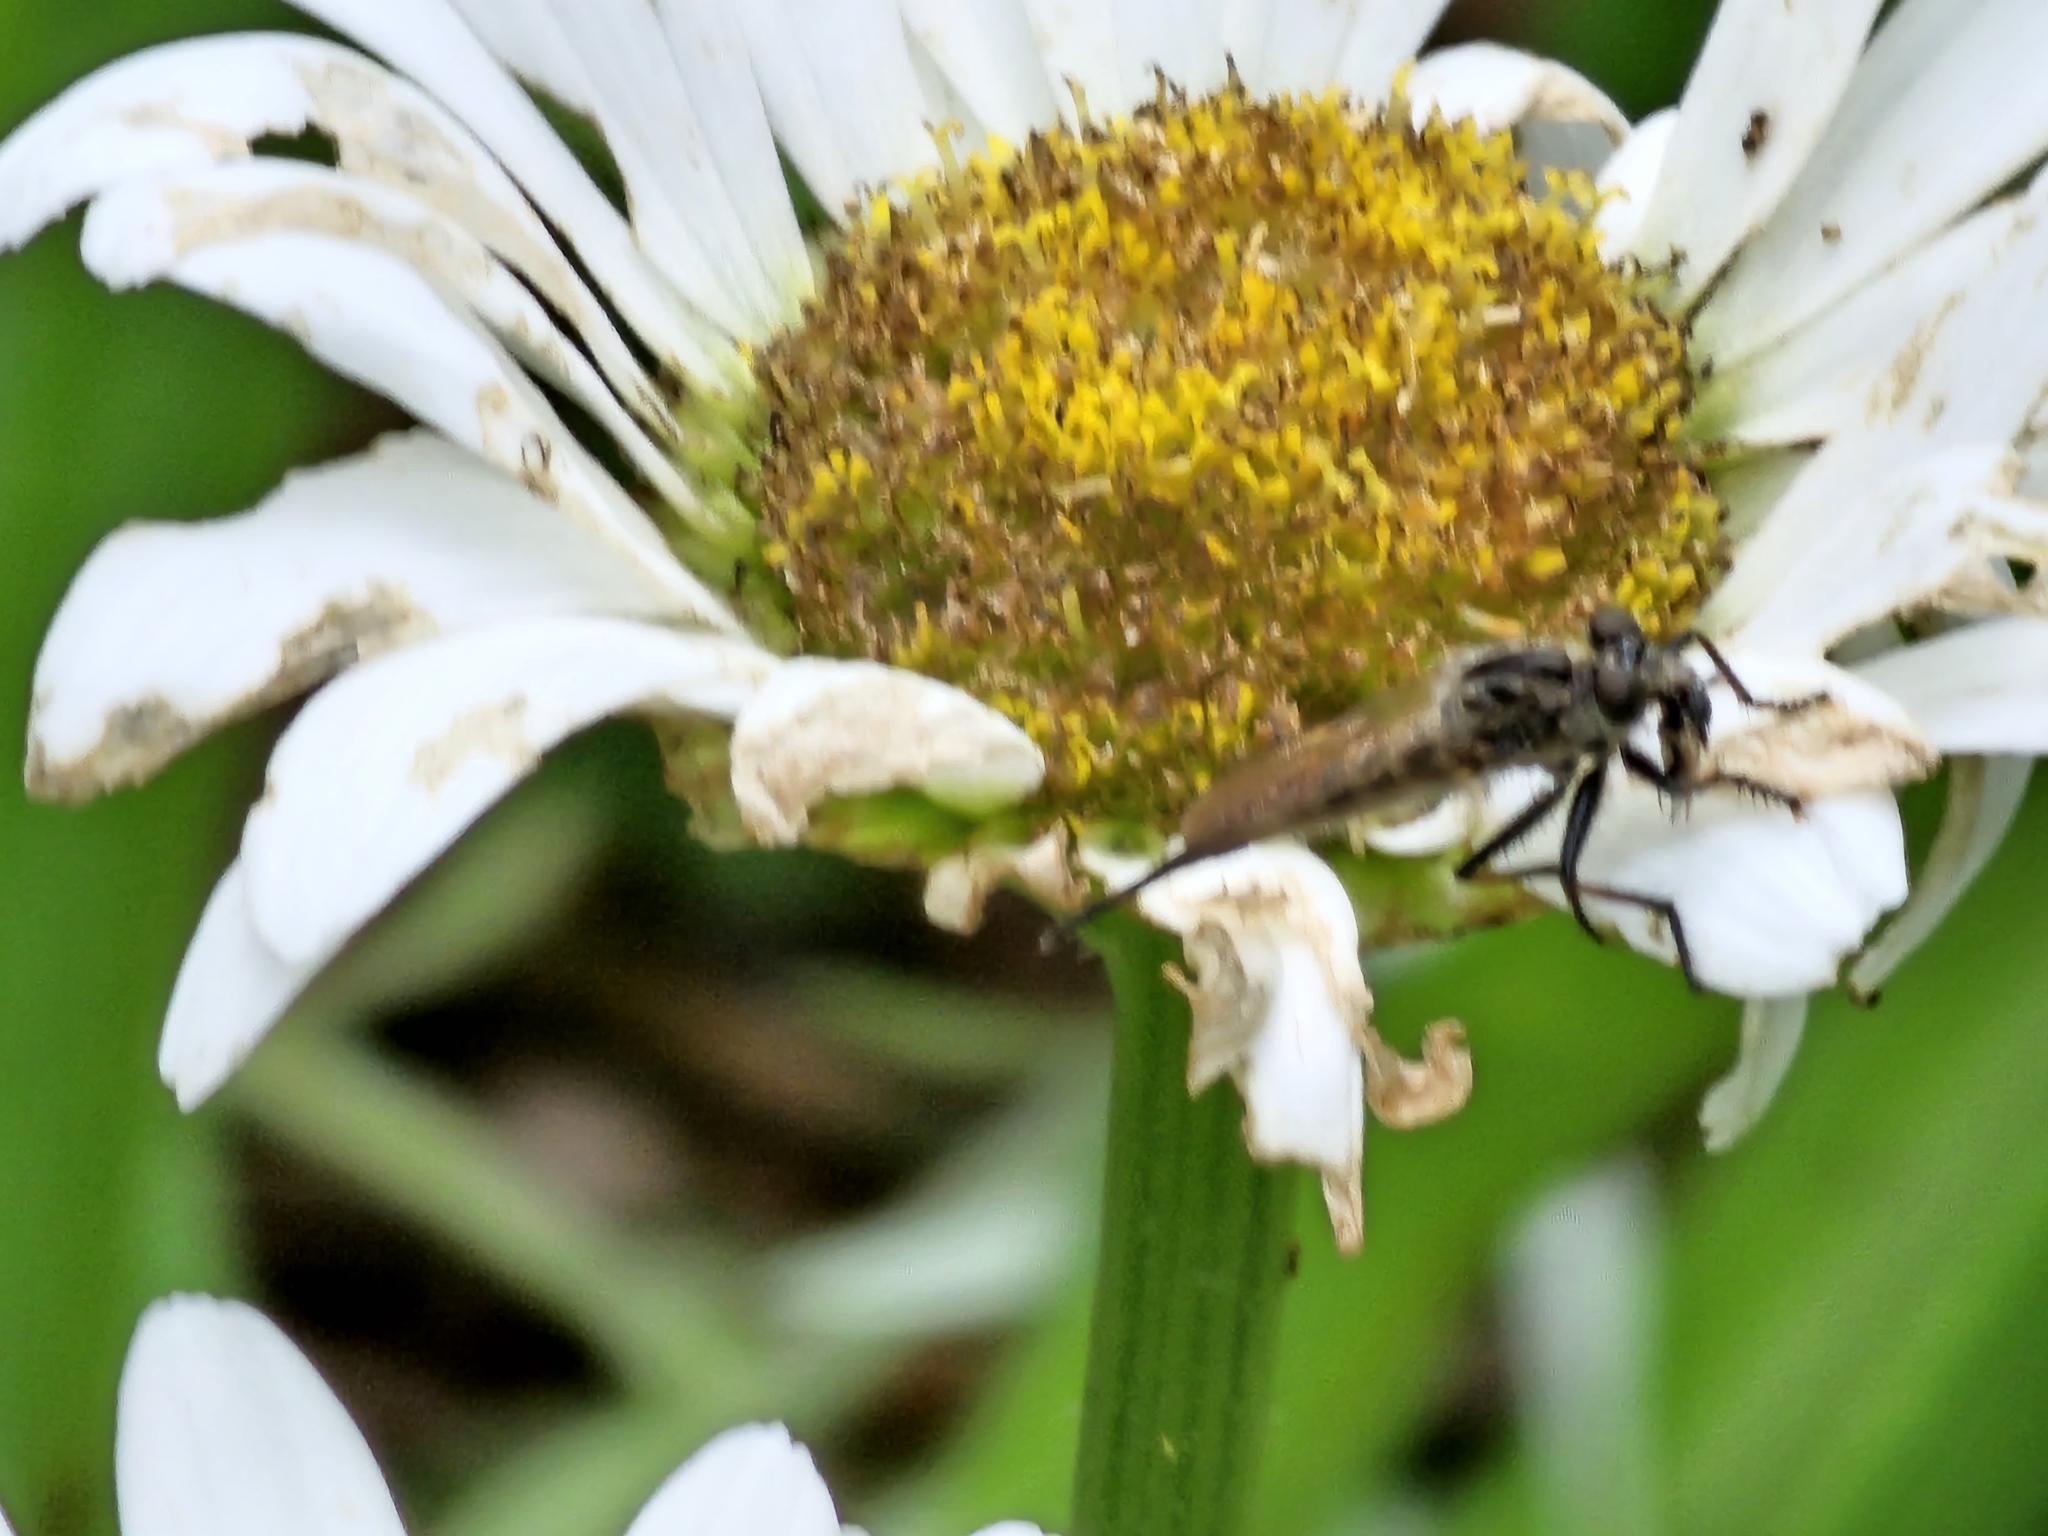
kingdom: Animalia
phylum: Arthropoda
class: Insecta
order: Diptera
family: Asilidae
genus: Efferia
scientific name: Efferia aestuans
